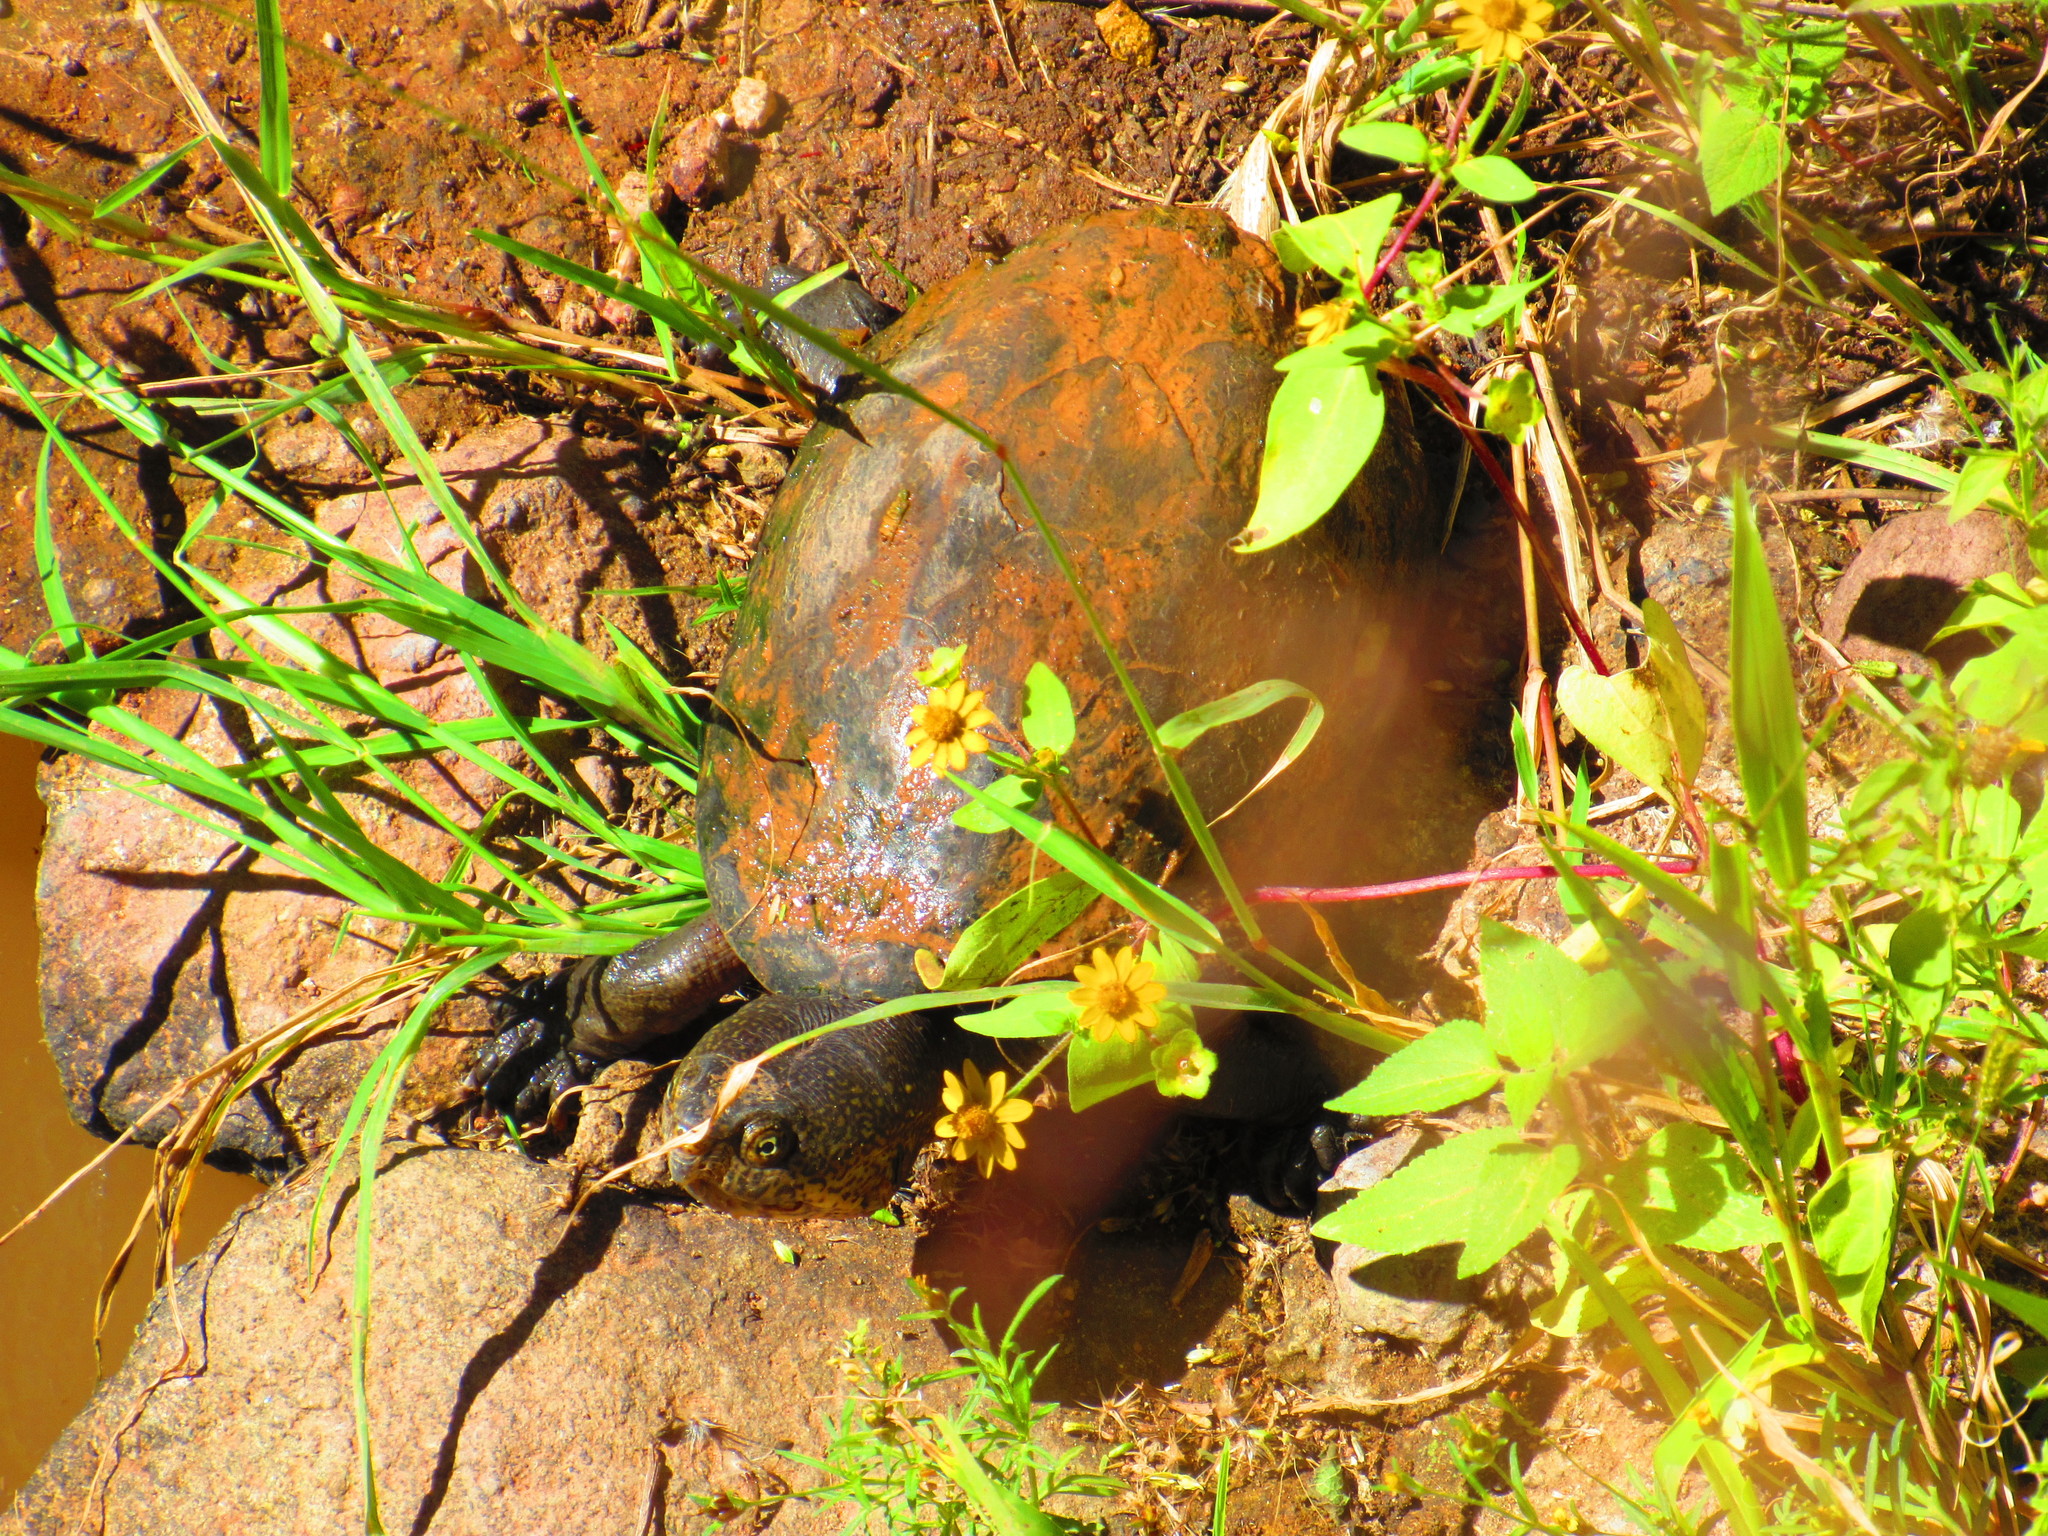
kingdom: Animalia
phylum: Chordata
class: Testudines
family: Kinosternidae
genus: Kinosternon
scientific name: Kinosternon hirtipes
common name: Rough-footed mud turtle
